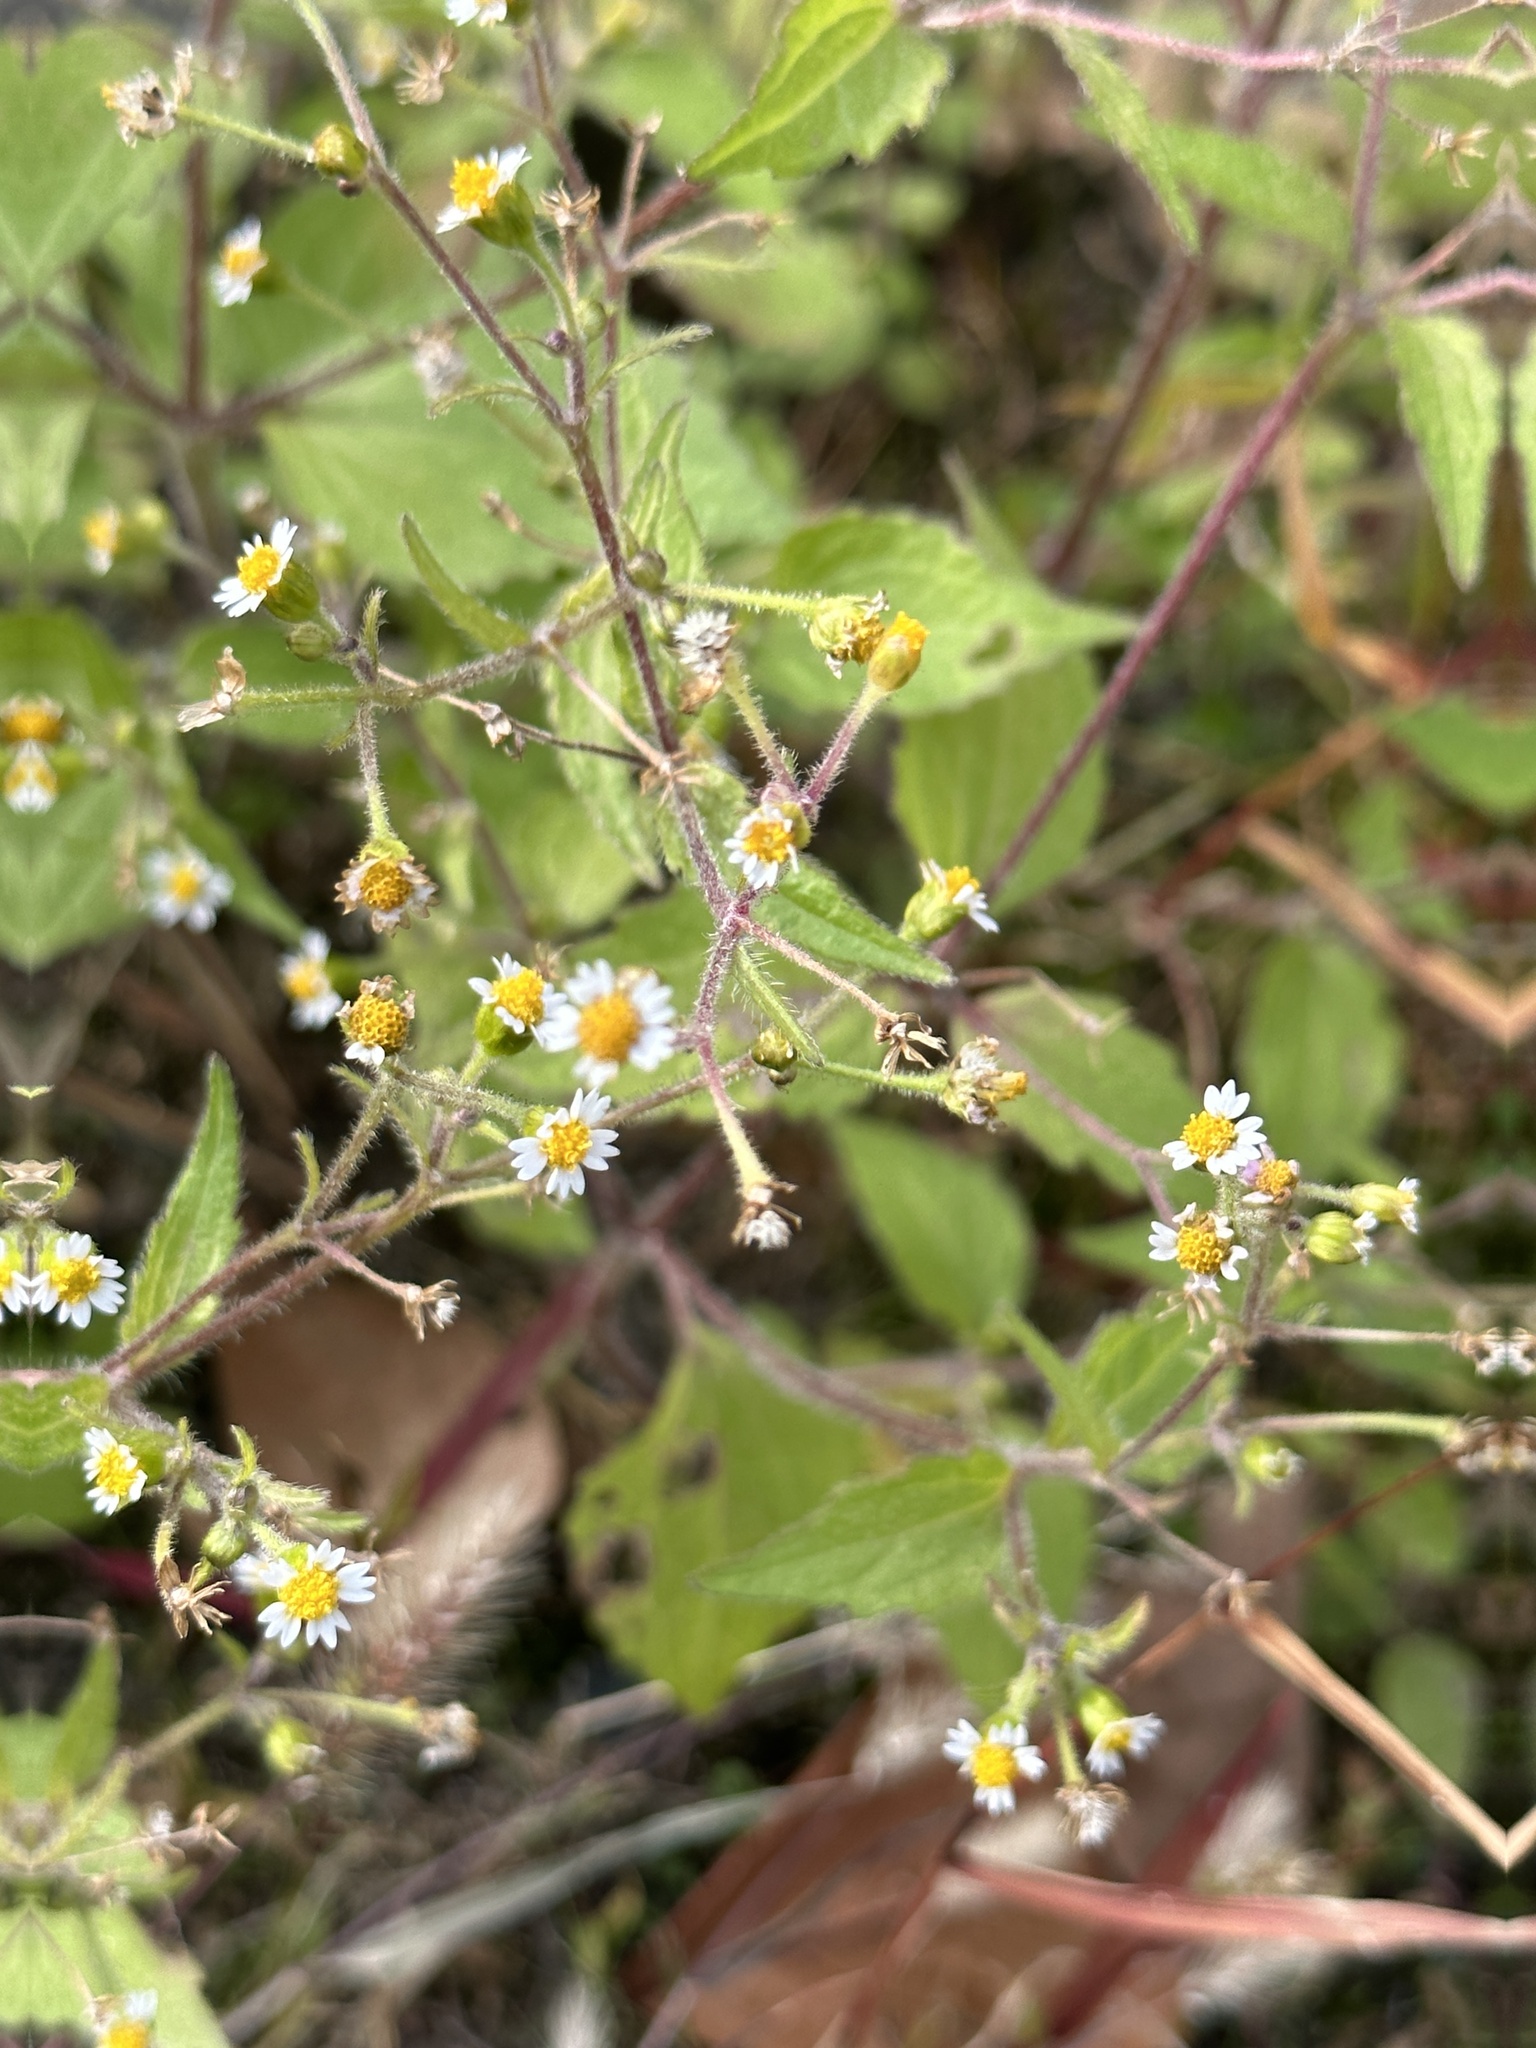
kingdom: Plantae
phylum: Tracheophyta
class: Magnoliopsida
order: Asterales
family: Asteraceae
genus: Galinsoga
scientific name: Galinsoga quadriradiata
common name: Shaggy soldier
